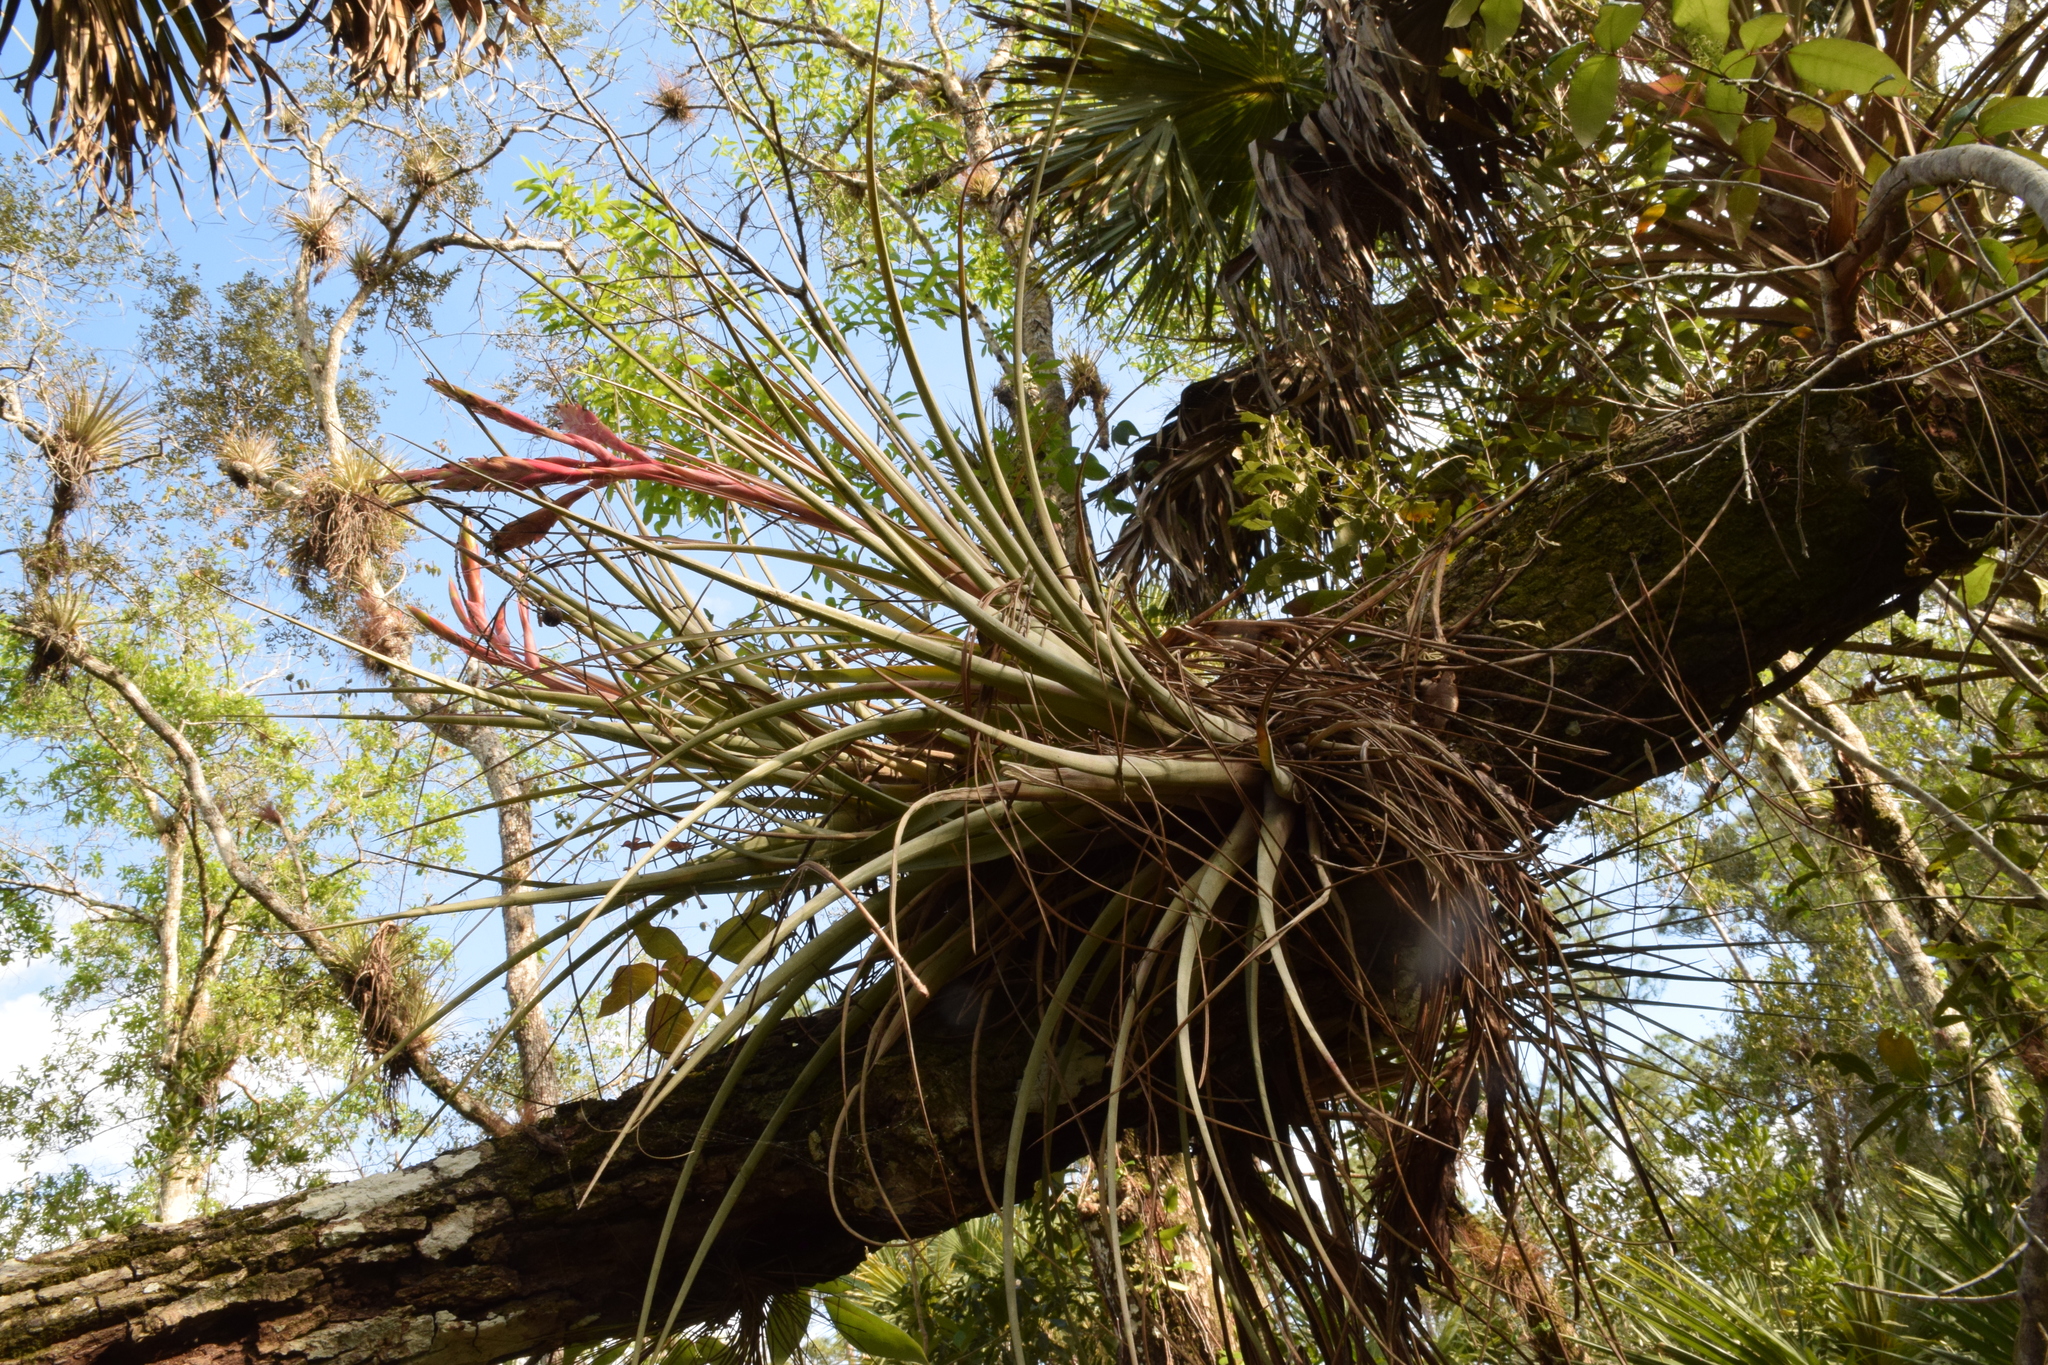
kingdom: Plantae
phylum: Tracheophyta
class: Liliopsida
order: Poales
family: Bromeliaceae
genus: Tillandsia
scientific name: Tillandsia fasciculata
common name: Giant airplant
